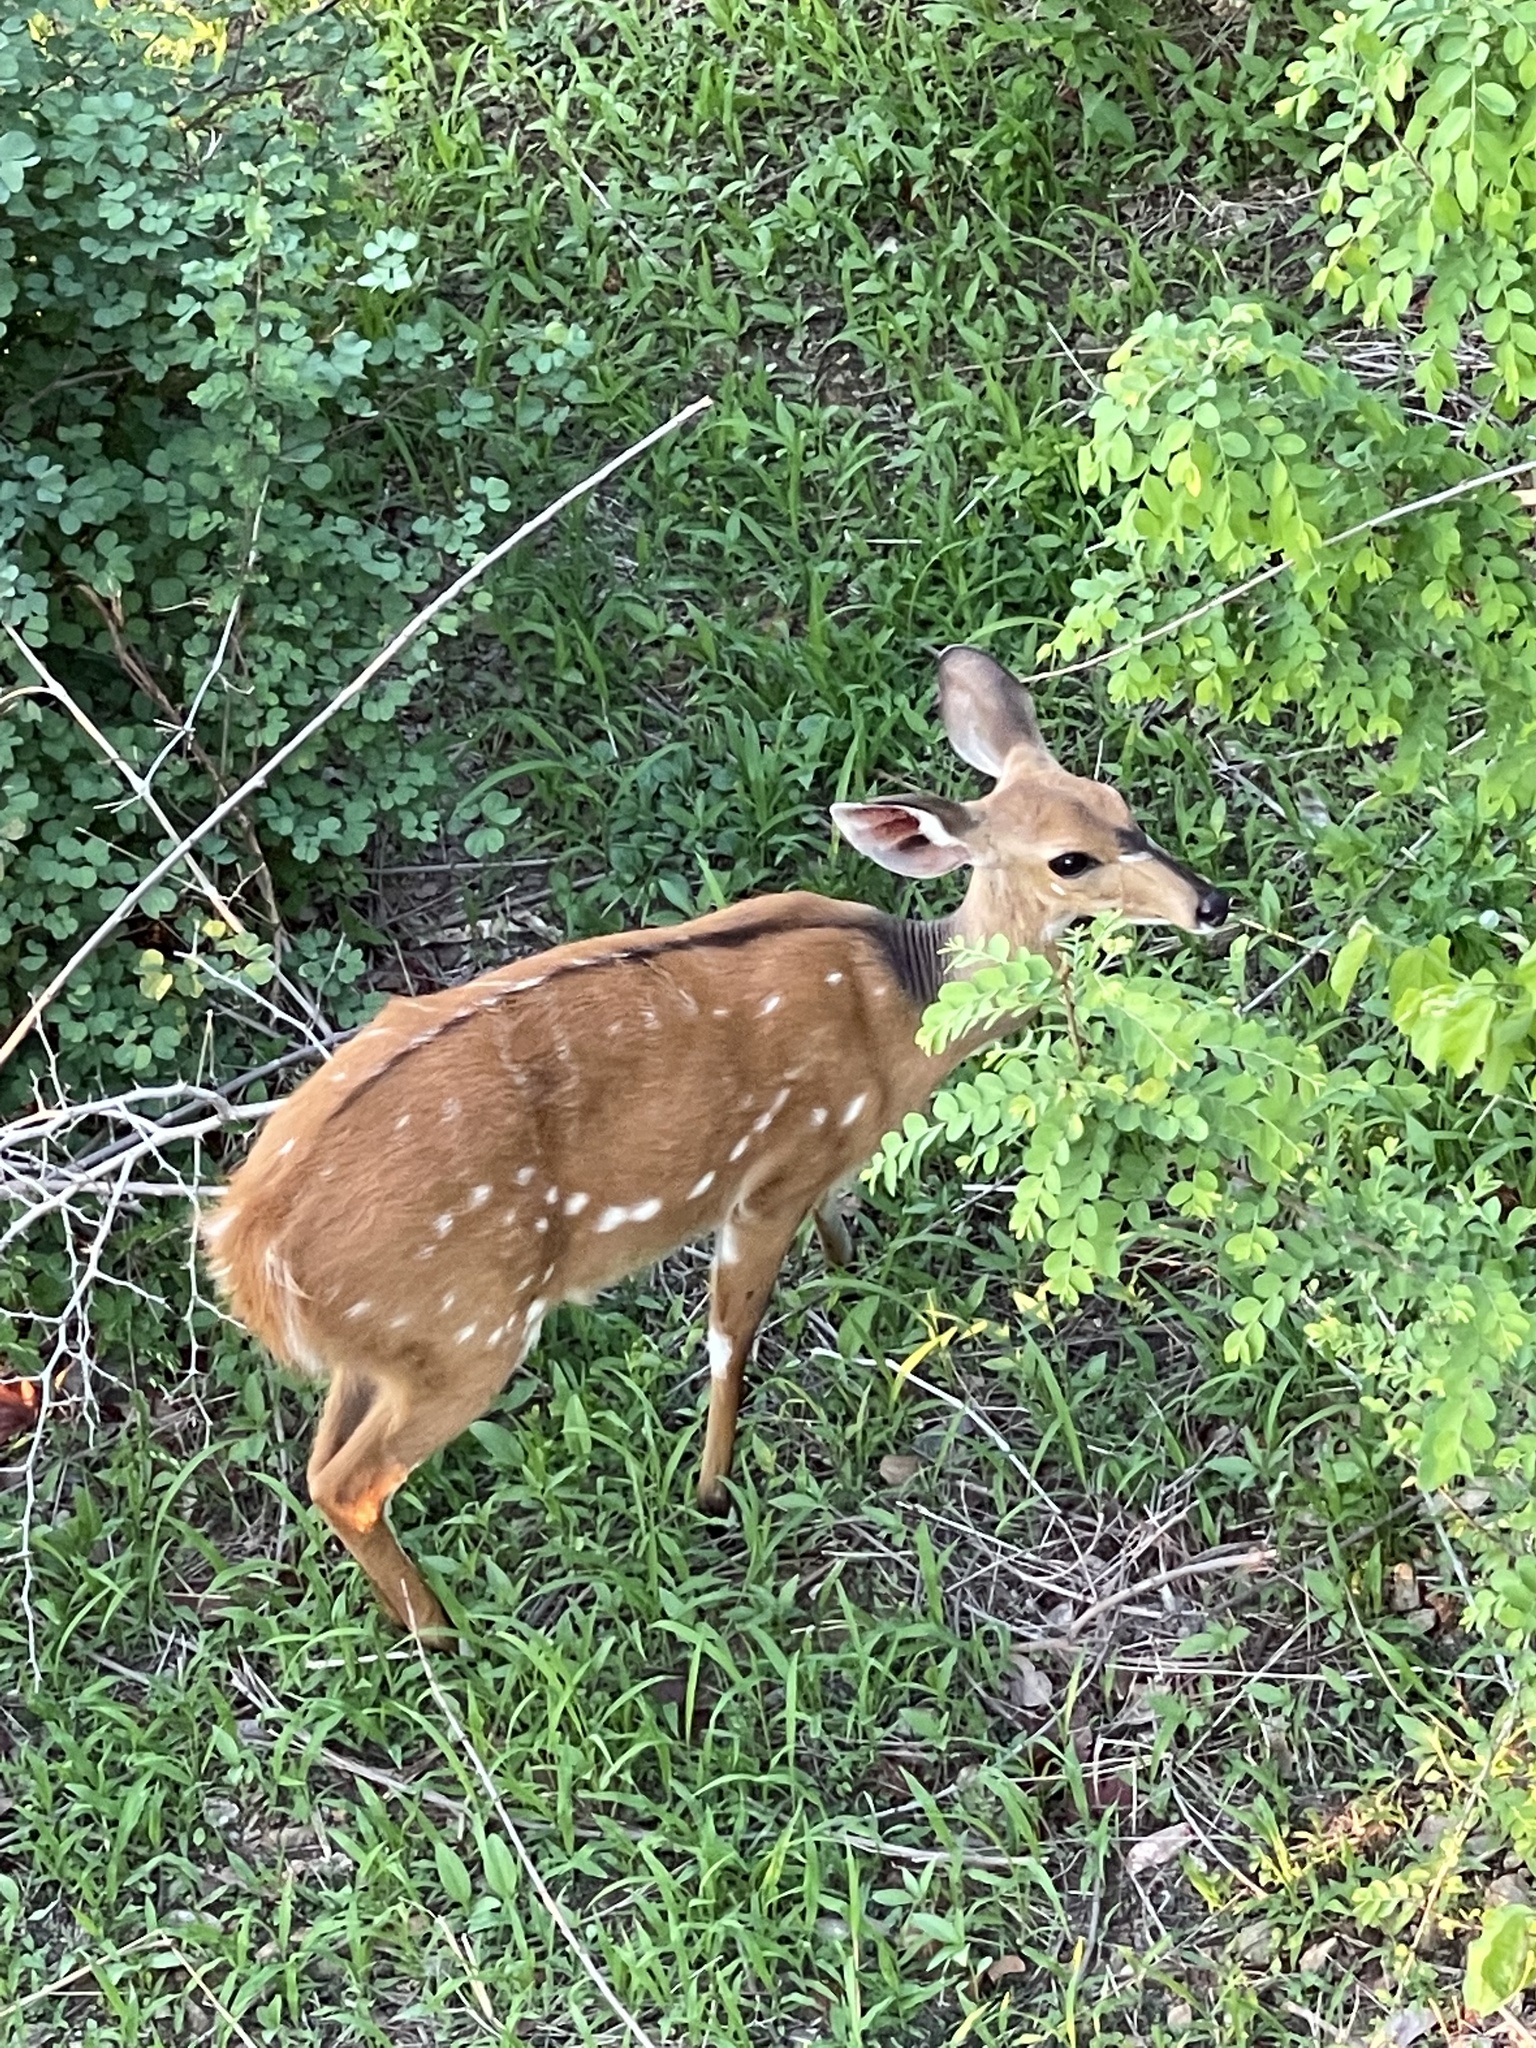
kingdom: Animalia
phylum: Chordata
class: Mammalia
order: Artiodactyla
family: Bovidae
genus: Tragelaphus
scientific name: Tragelaphus scriptus
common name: Bushbuck
